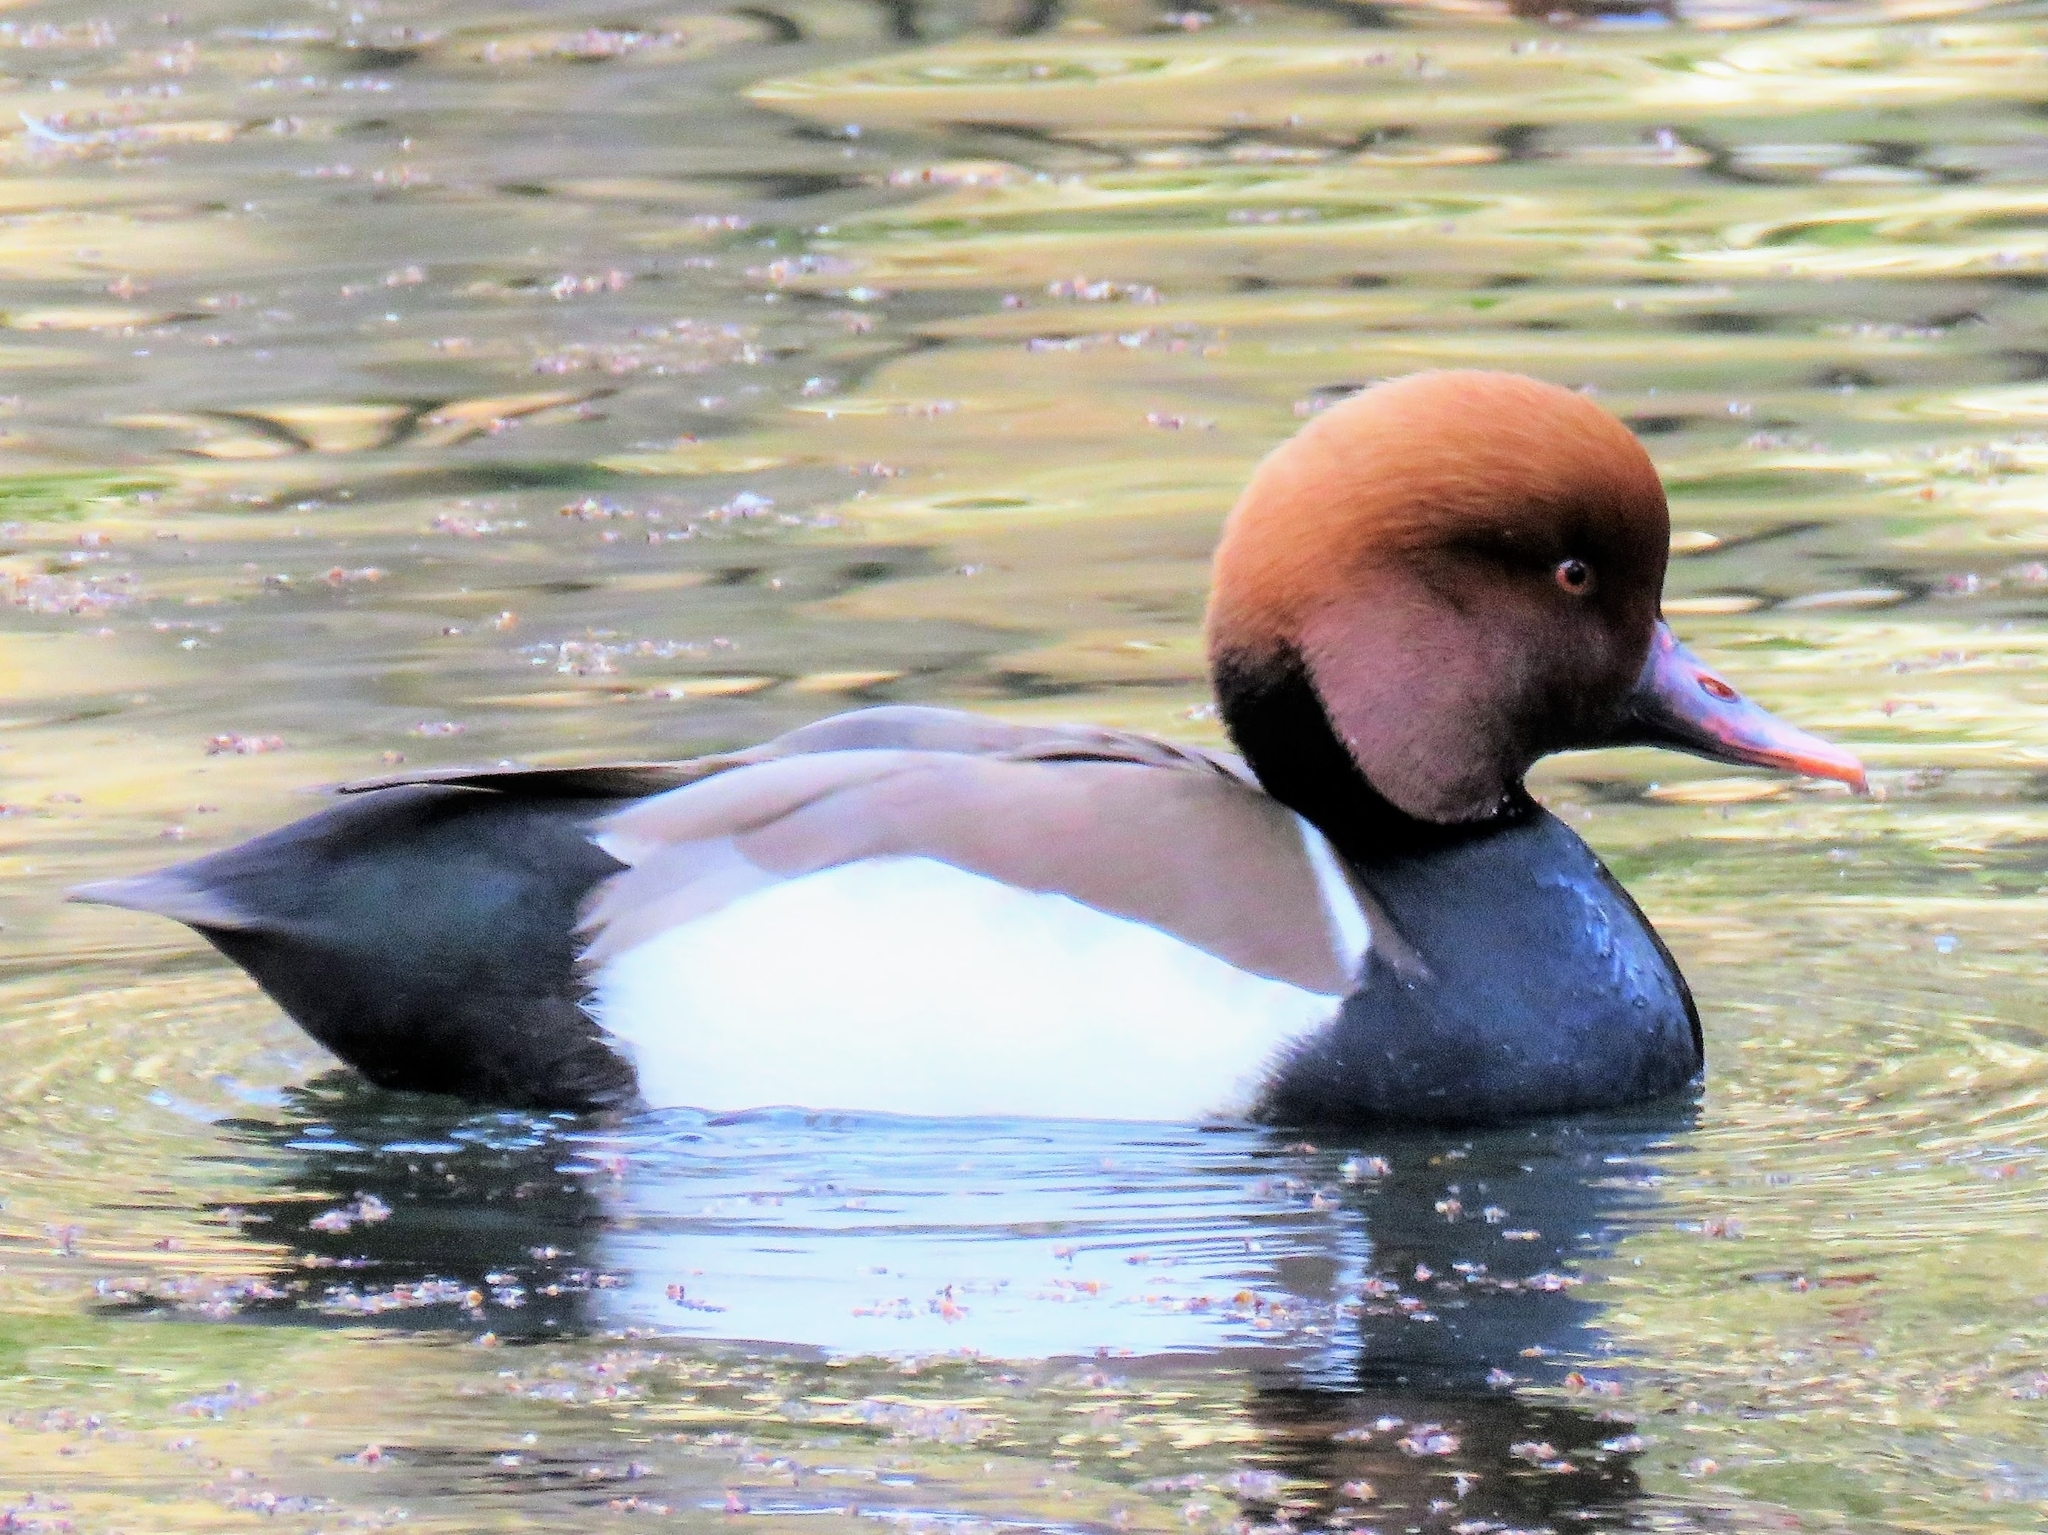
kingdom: Animalia
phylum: Chordata
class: Aves
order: Anseriformes
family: Anatidae
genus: Netta
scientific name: Netta rufina
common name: Red-crested pochard
